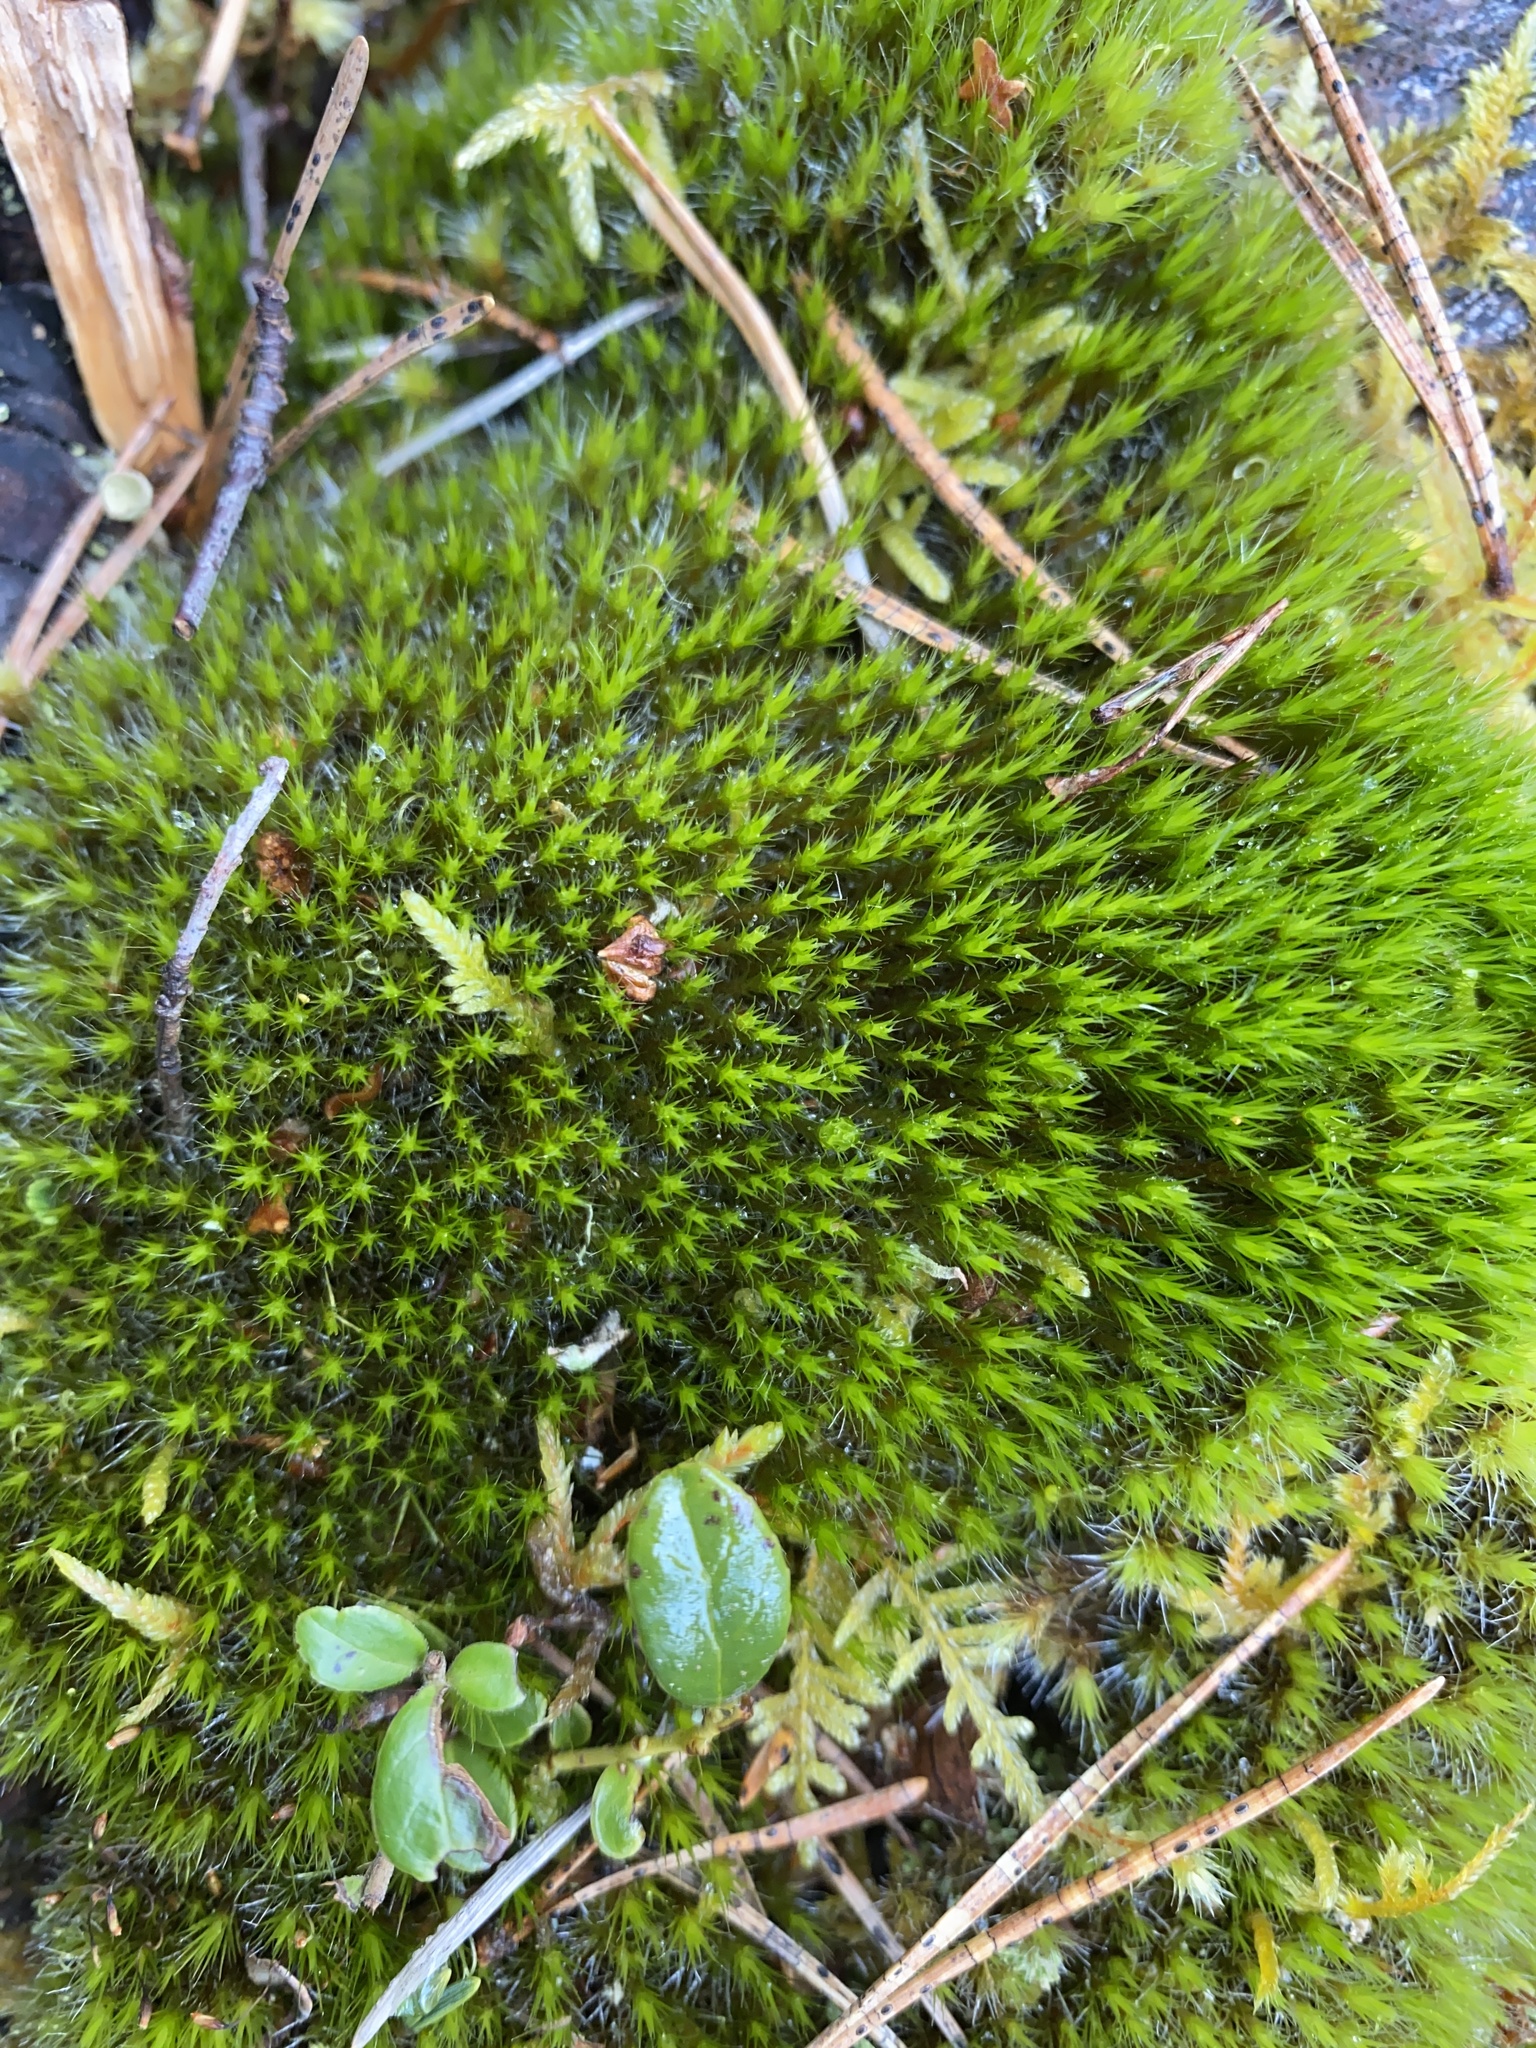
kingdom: Plantae
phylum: Bryophyta
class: Bryopsida
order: Dicranales
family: Leucobryaceae
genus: Campylopus
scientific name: Campylopus introflexus
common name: Heath star moss
